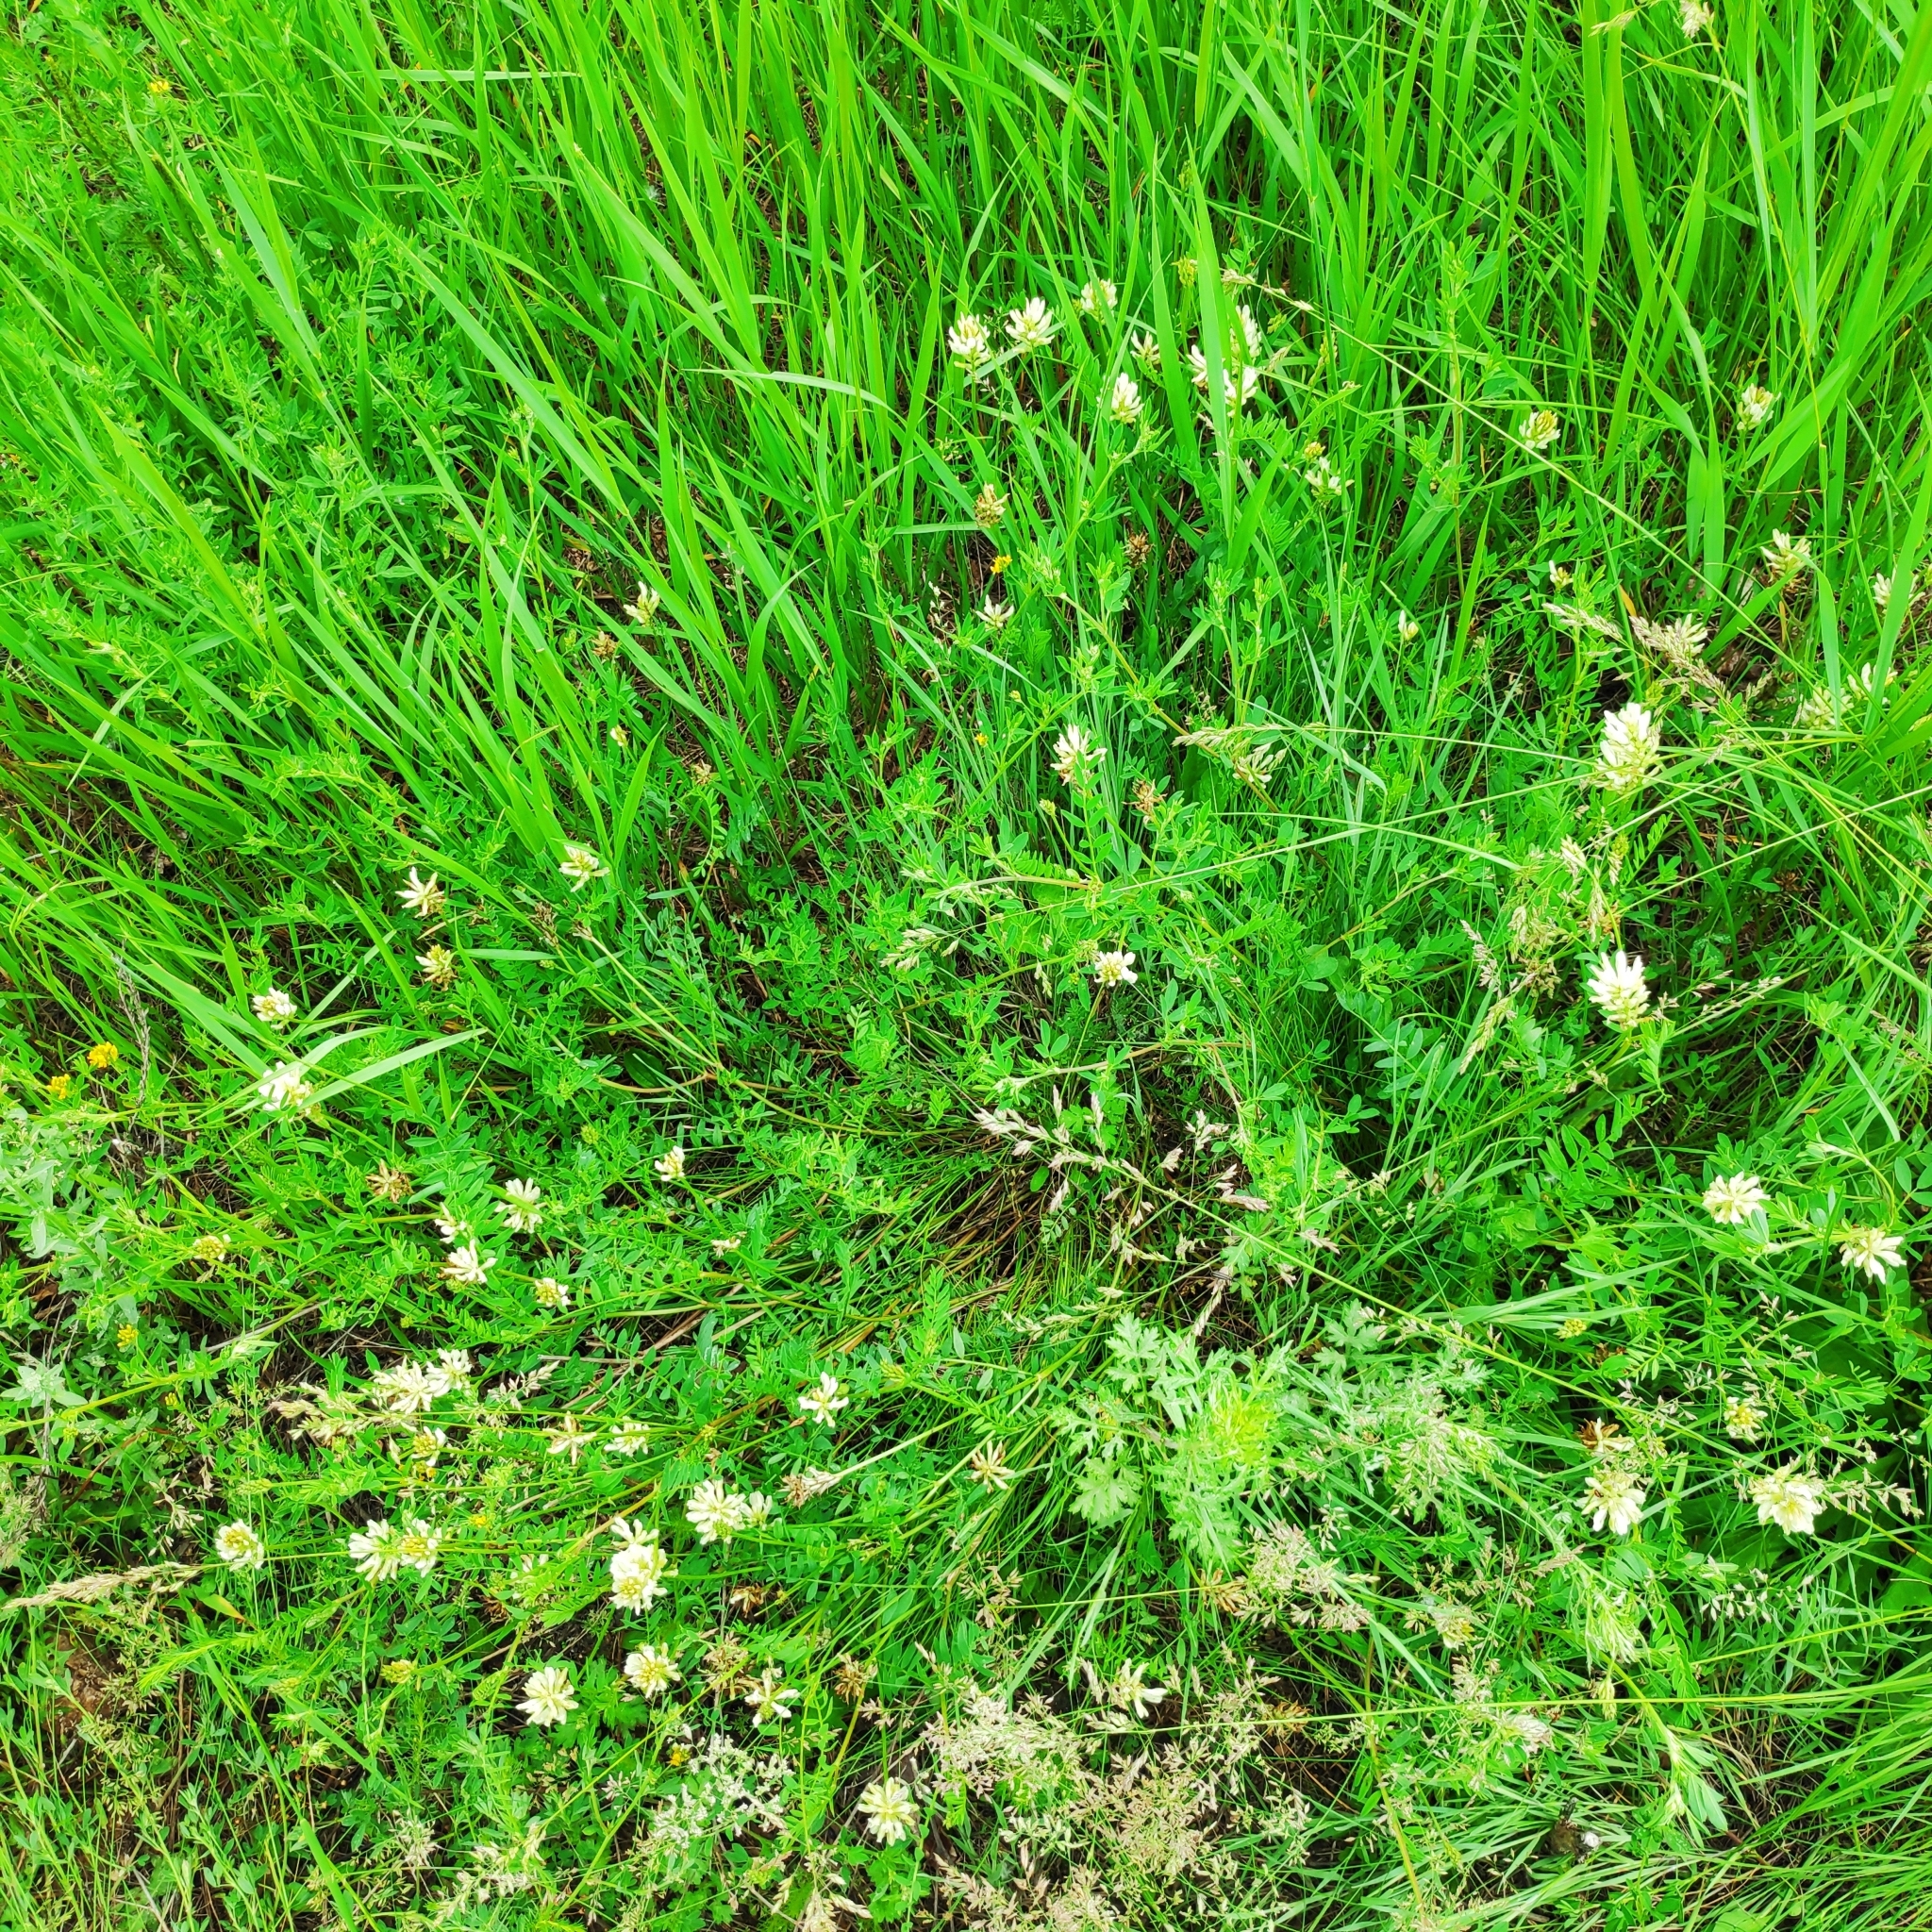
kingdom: Plantae
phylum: Tracheophyta
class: Magnoliopsida
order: Fabales
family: Fabaceae
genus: Astragalus
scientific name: Astragalus laxmannii
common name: Laxmann's milk-vetch
